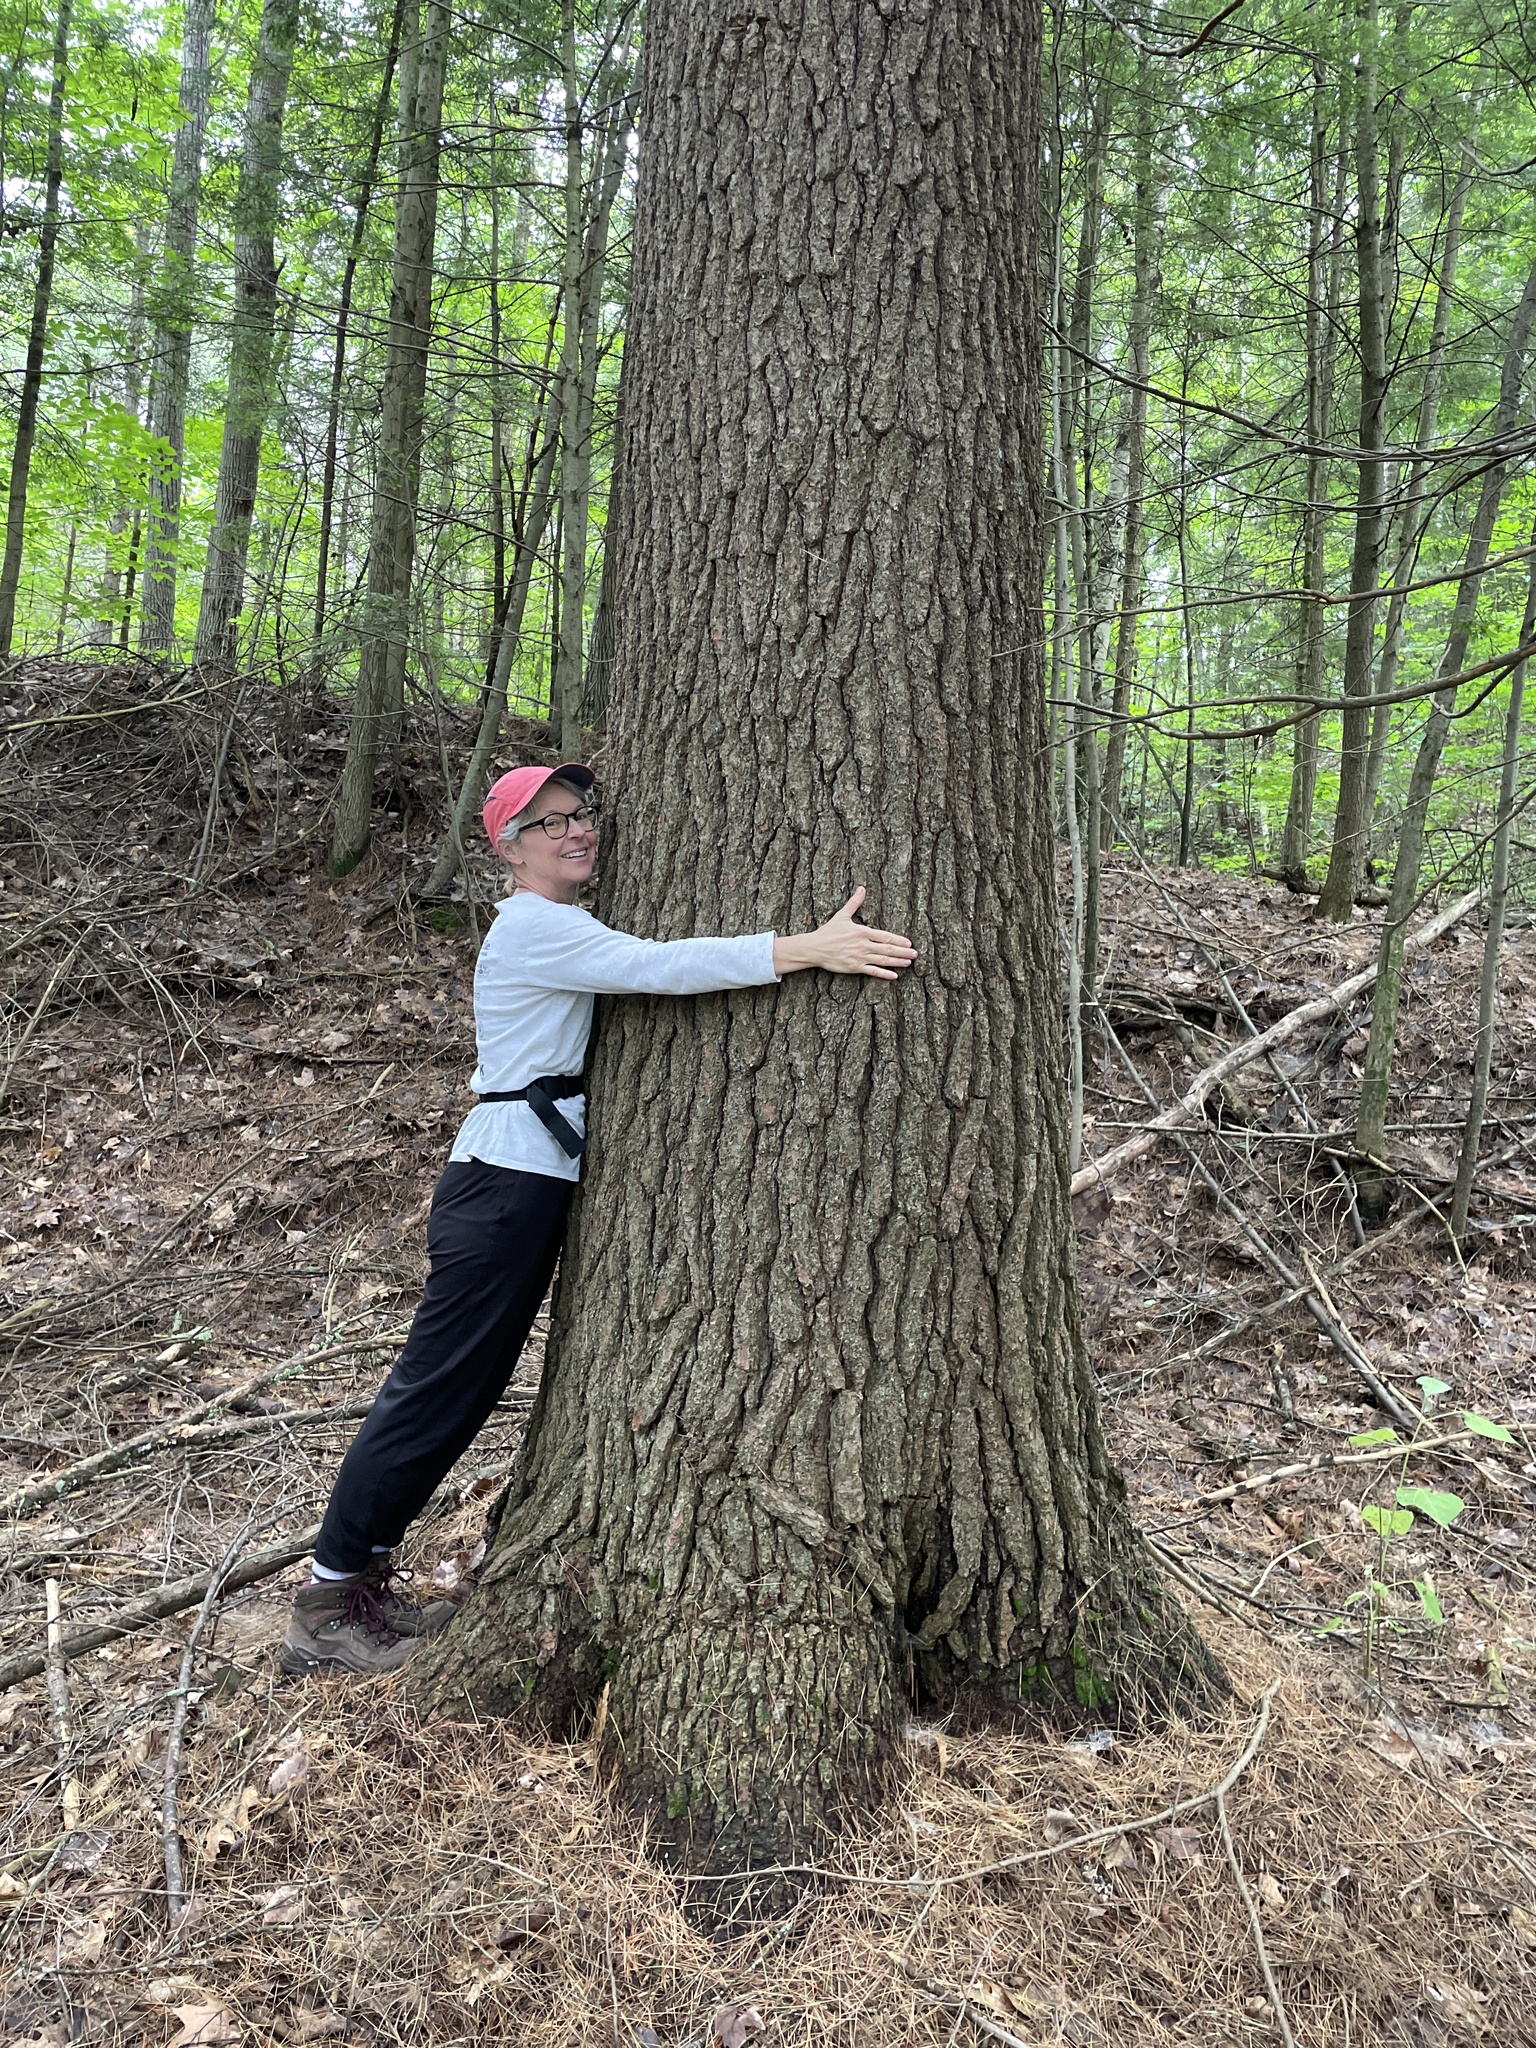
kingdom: Plantae
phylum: Tracheophyta
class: Pinopsida
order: Pinales
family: Pinaceae
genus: Tsuga
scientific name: Tsuga canadensis
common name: Eastern hemlock
